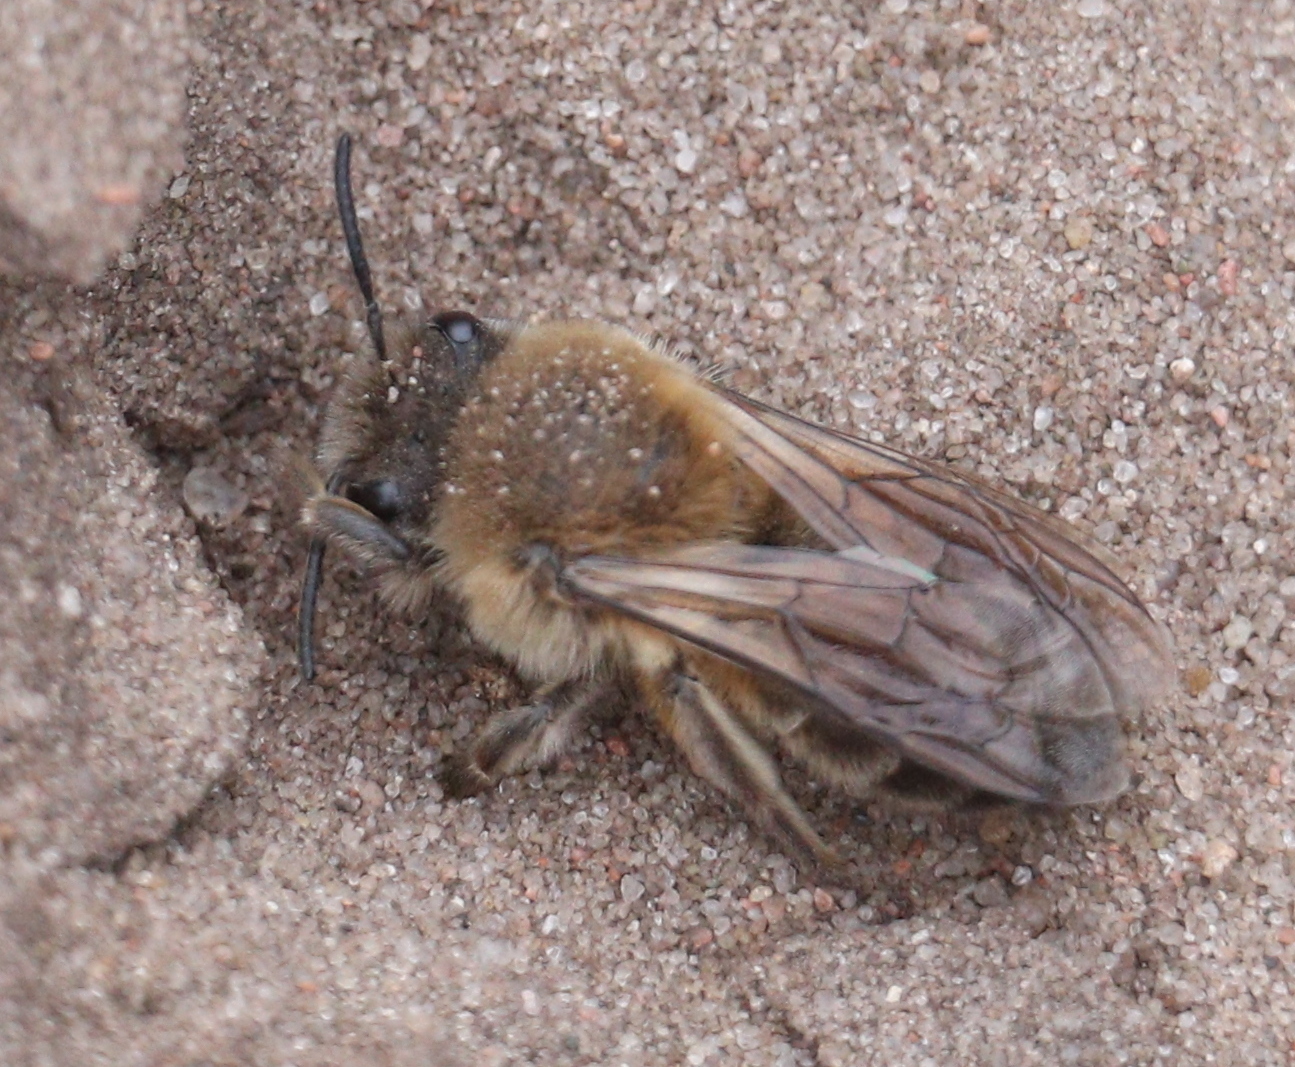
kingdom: Animalia
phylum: Arthropoda
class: Insecta
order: Hymenoptera
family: Colletidae
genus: Colletes
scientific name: Colletes cunicularius
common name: Early colletes
